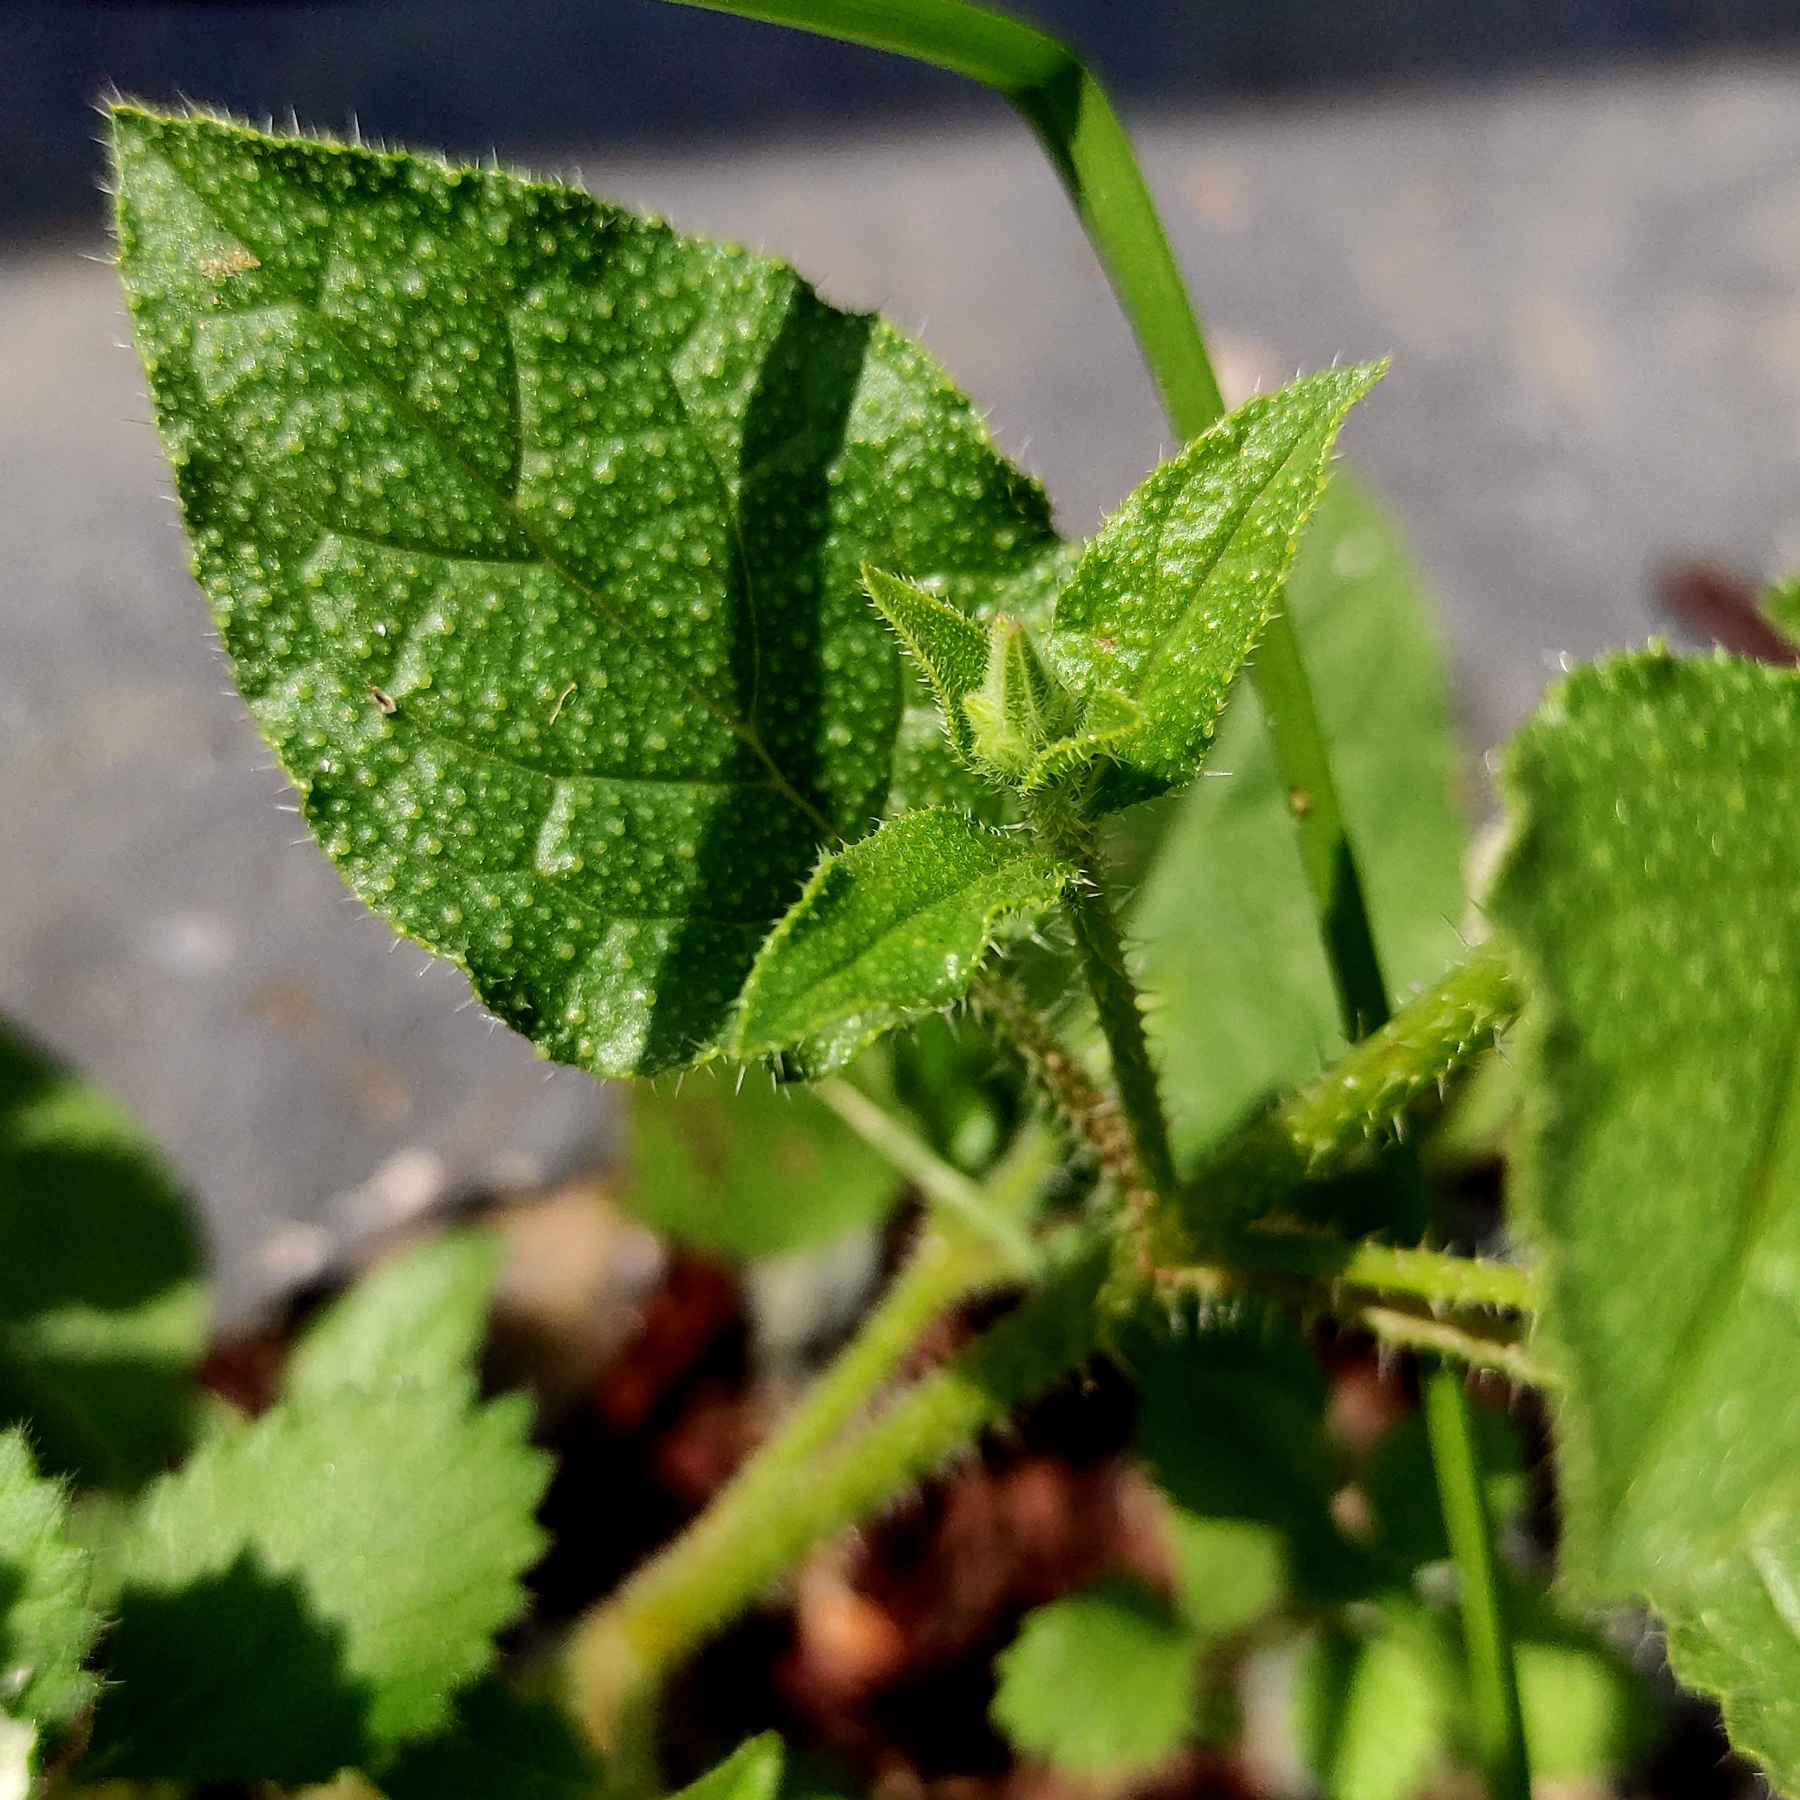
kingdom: Plantae
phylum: Tracheophyta
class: Magnoliopsida
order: Boraginales
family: Boraginaceae
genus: Trichodesma
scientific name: Trichodesma africanum
